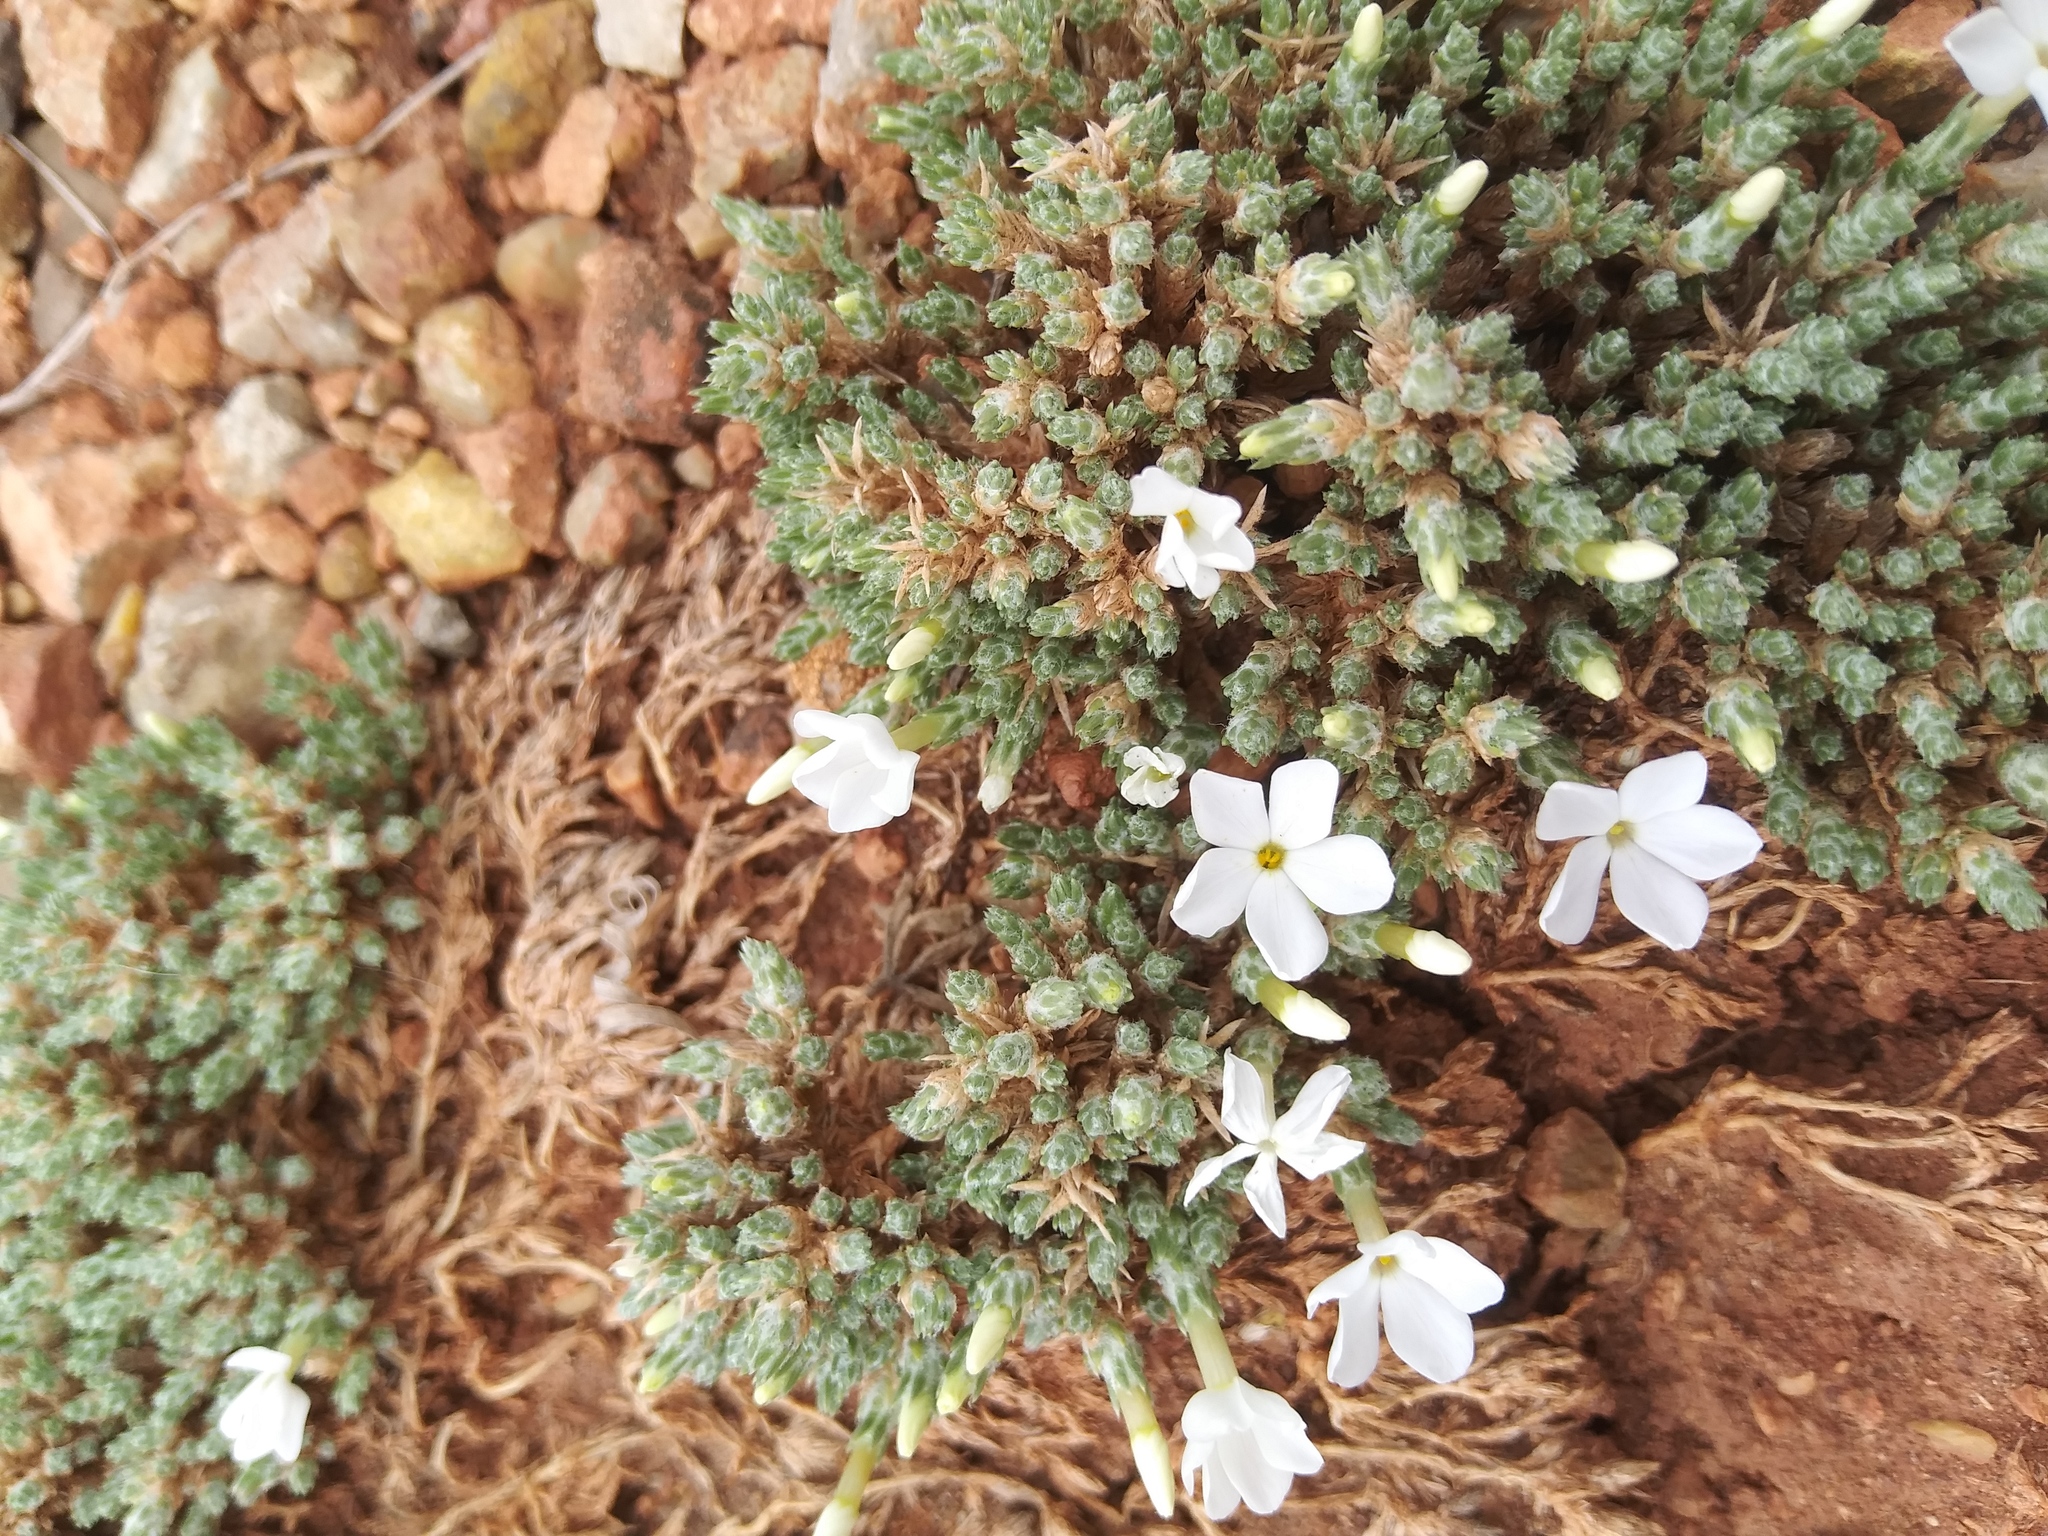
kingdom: Plantae
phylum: Tracheophyta
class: Magnoliopsida
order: Ericales
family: Polemoniaceae
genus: Phlox
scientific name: Phlox hoodii
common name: Moss phlox
